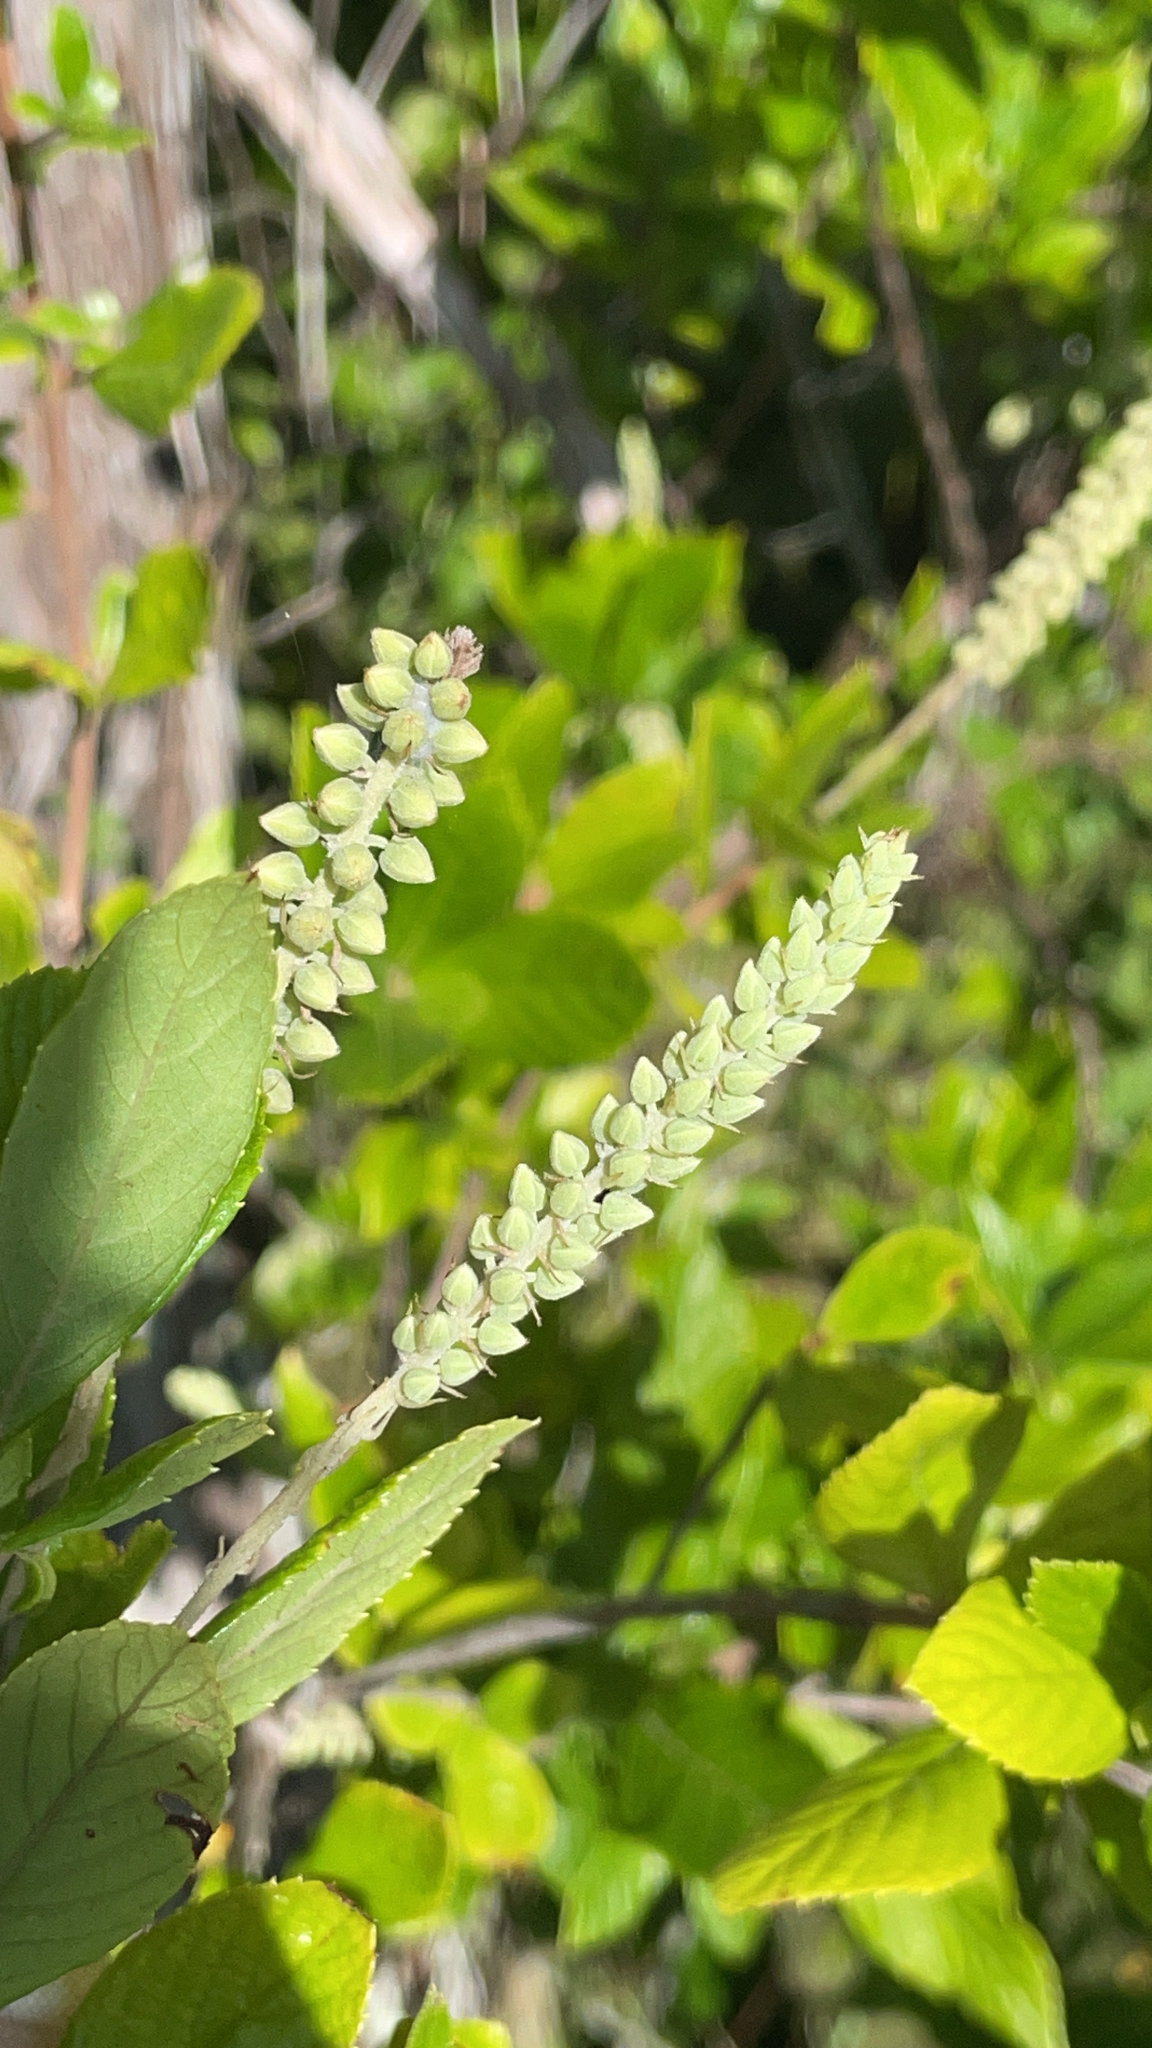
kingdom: Plantae
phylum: Tracheophyta
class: Magnoliopsida
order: Ericales
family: Clethraceae
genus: Clethra
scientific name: Clethra alnifolia
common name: Sweet pepperbush
